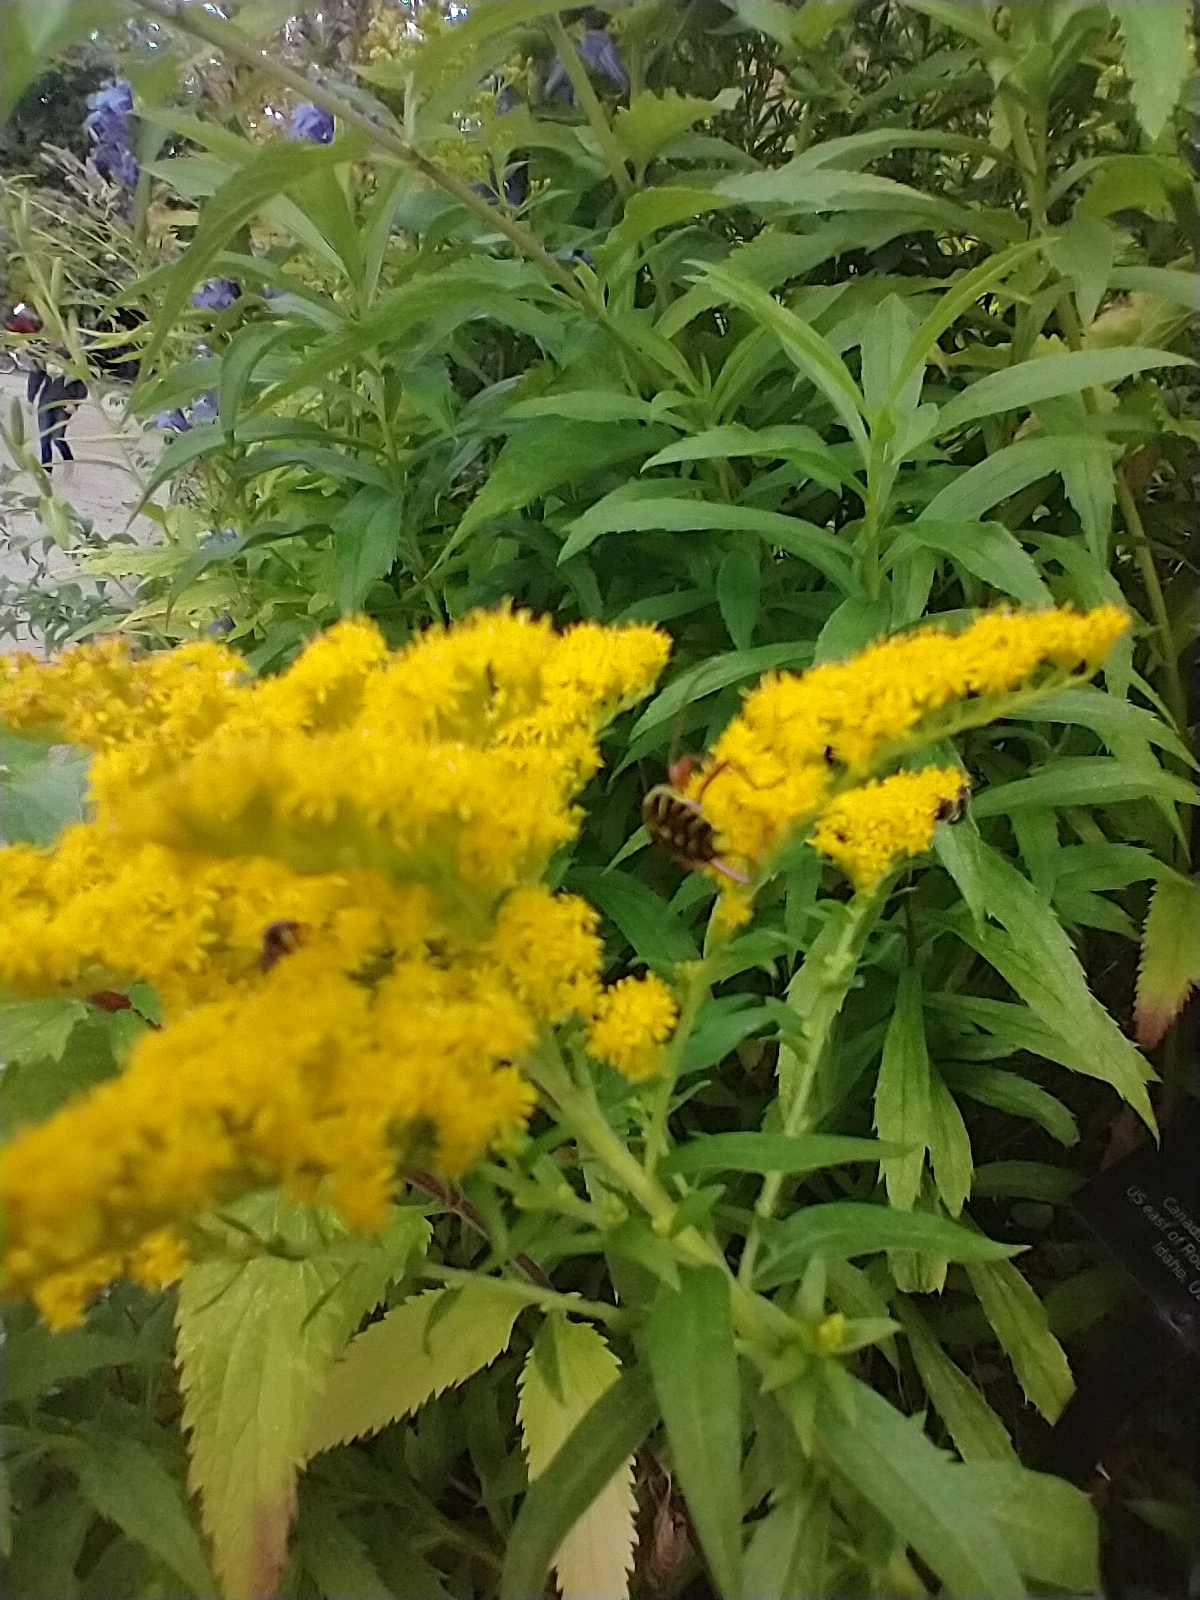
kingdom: Animalia
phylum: Arthropoda
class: Insecta
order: Coleoptera
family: Cerambycidae
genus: Megacyllene
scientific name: Megacyllene robiniae
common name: Locust borer
